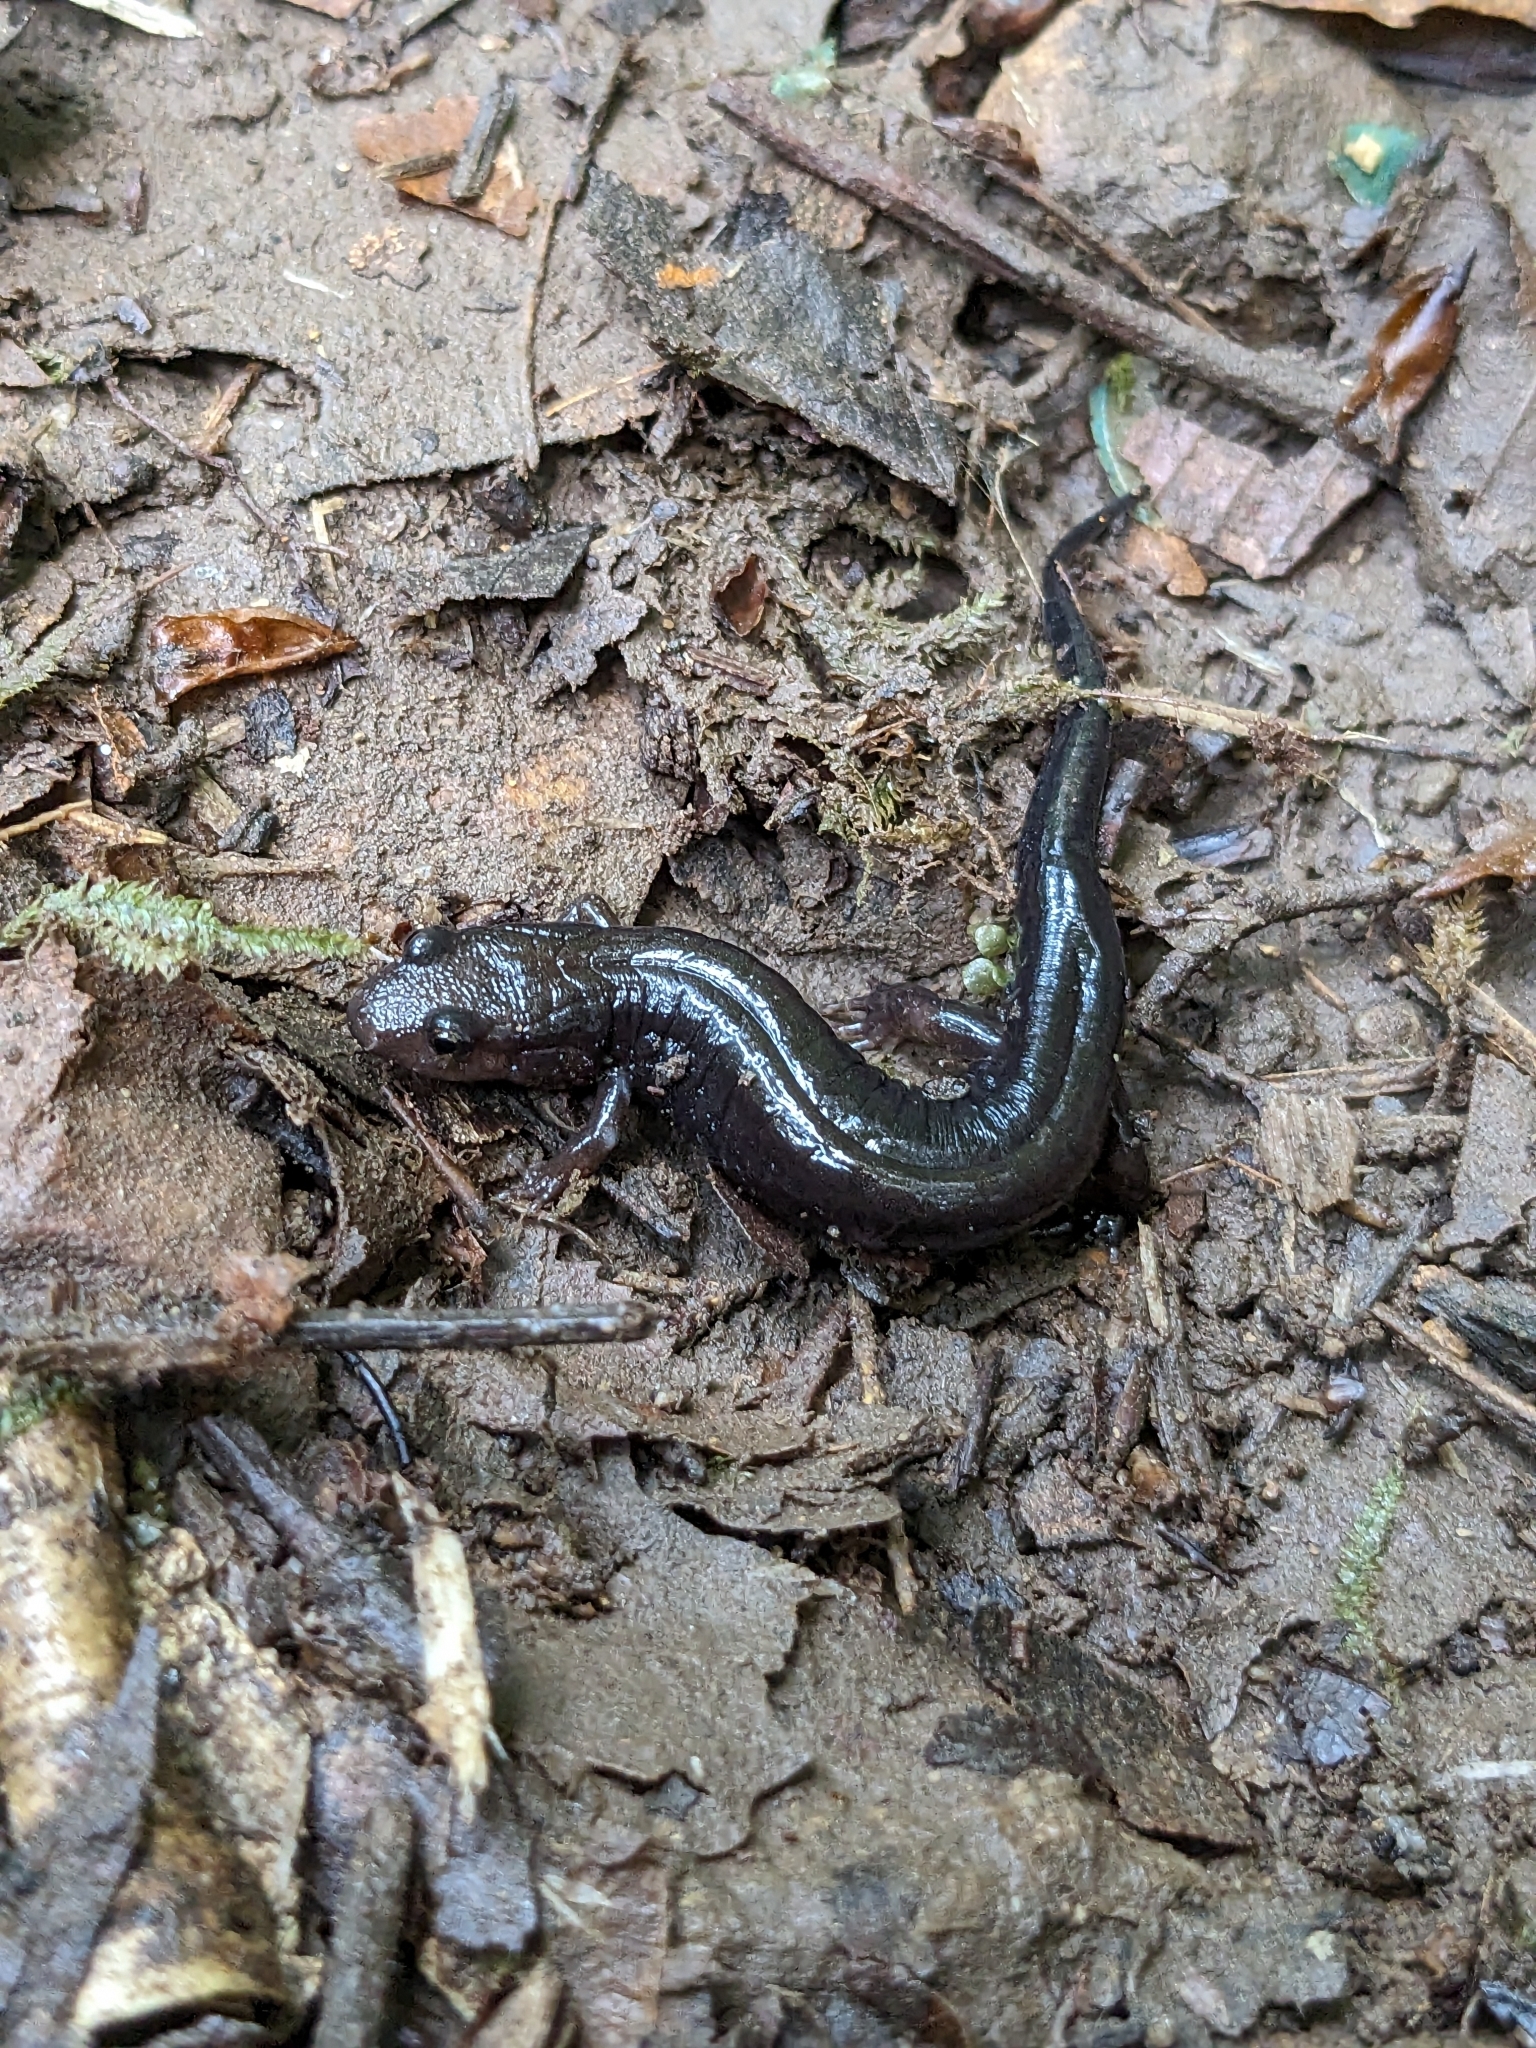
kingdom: Animalia
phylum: Chordata
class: Amphibia
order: Caudata
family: Plethodontidae
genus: Desmognathus
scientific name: Desmognathus ochrophaeus
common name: Allegheny mountain dusky salamander
